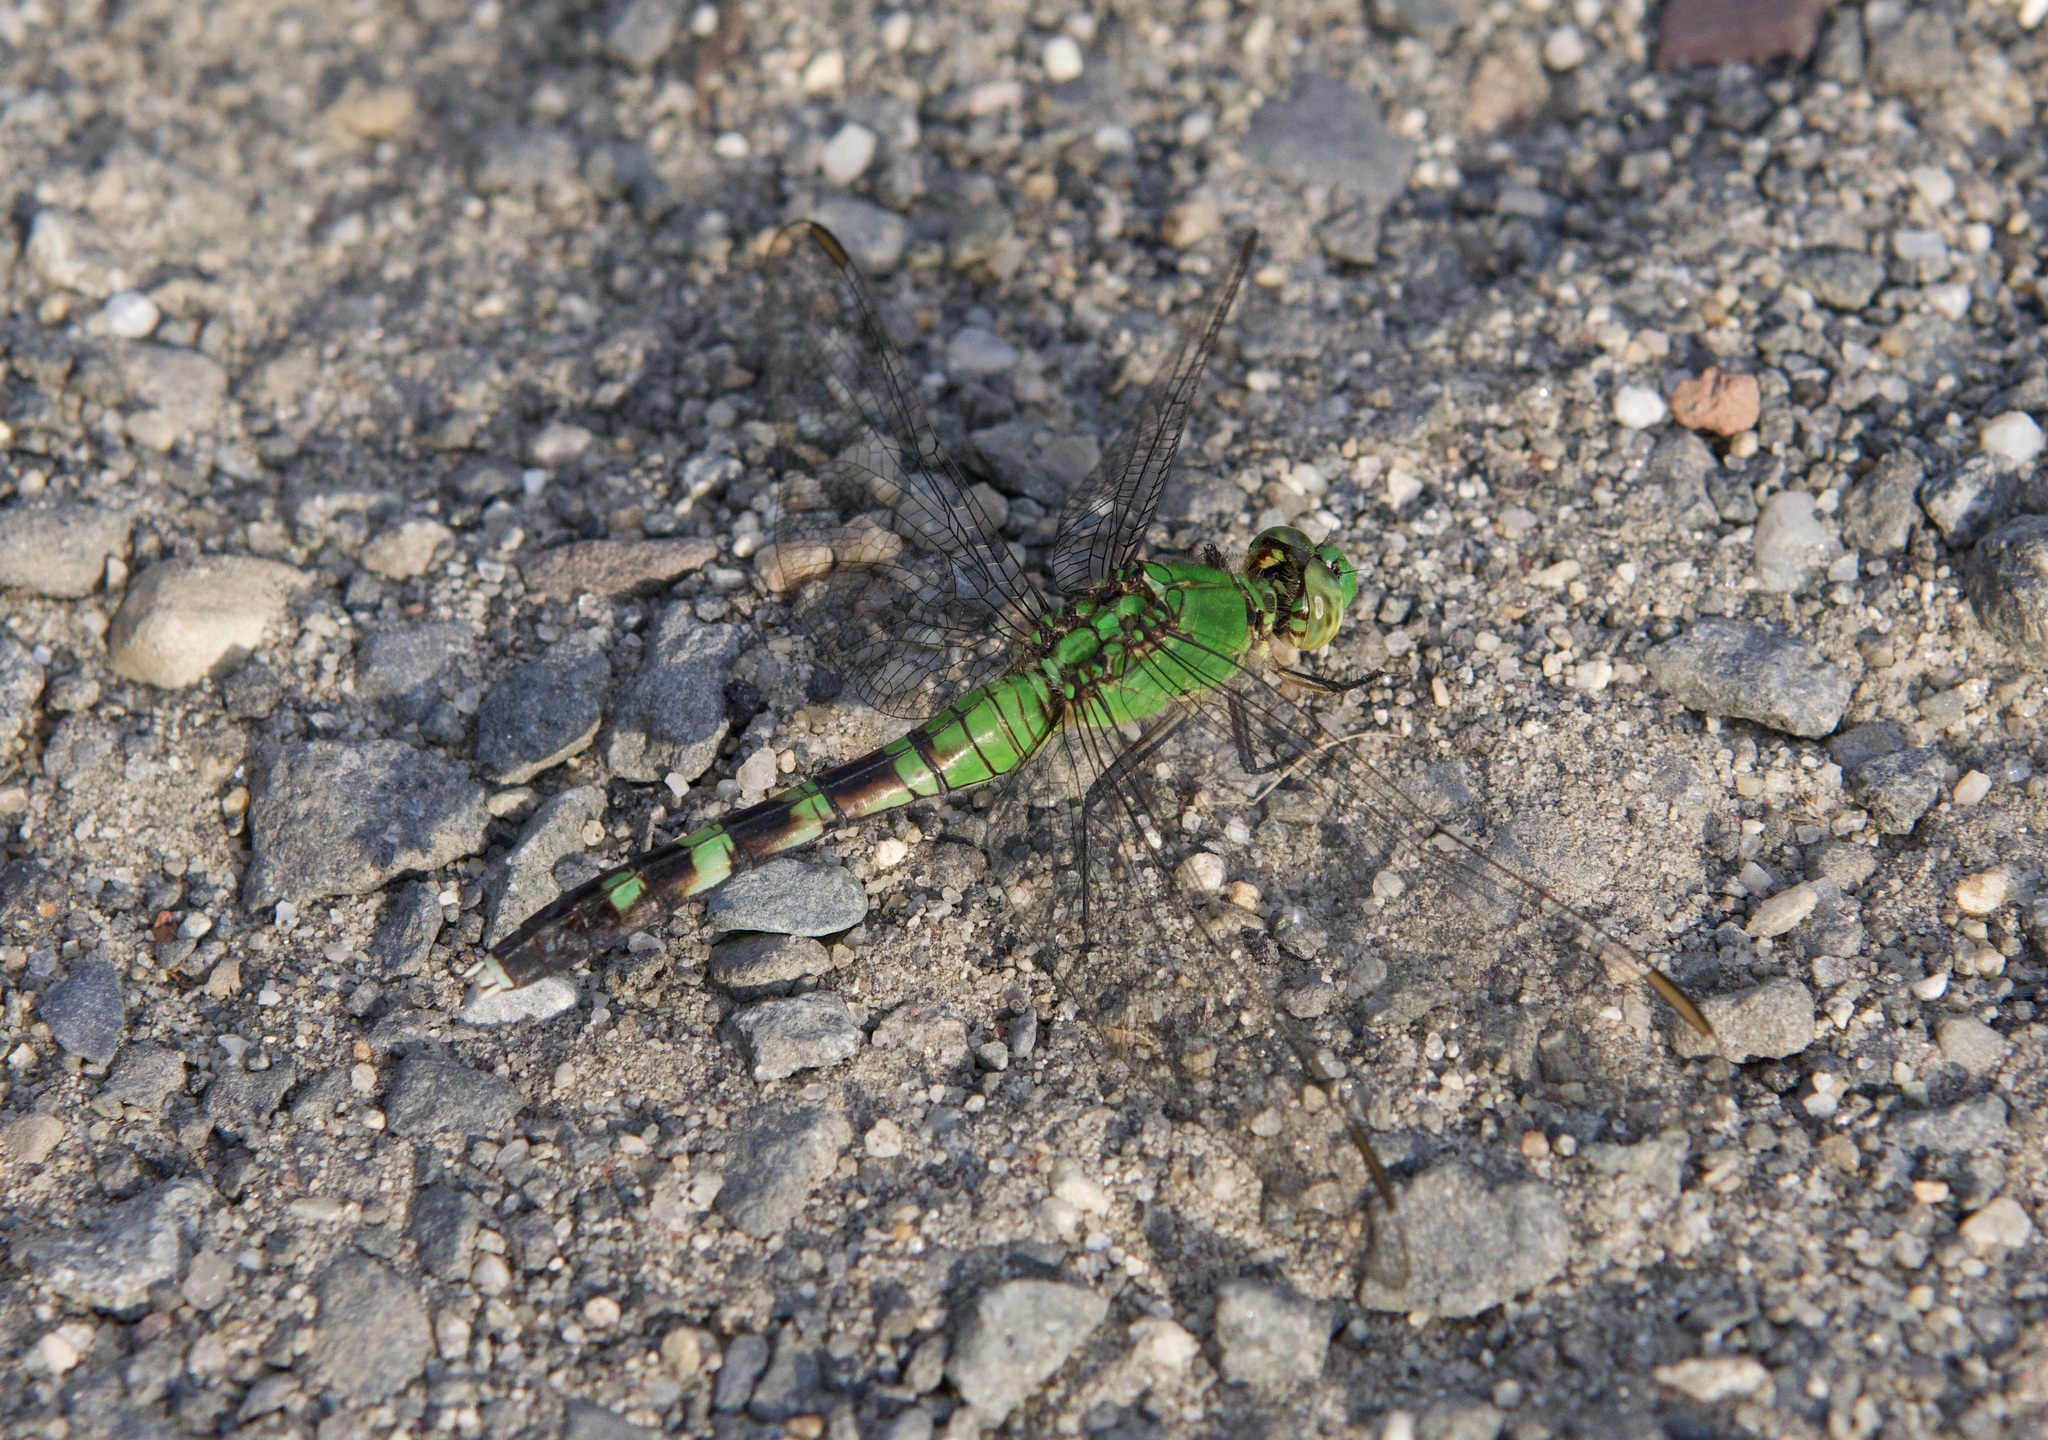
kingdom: Animalia
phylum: Arthropoda
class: Insecta
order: Odonata
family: Libellulidae
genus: Erythemis
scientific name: Erythemis simplicicollis
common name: Eastern pondhawk
